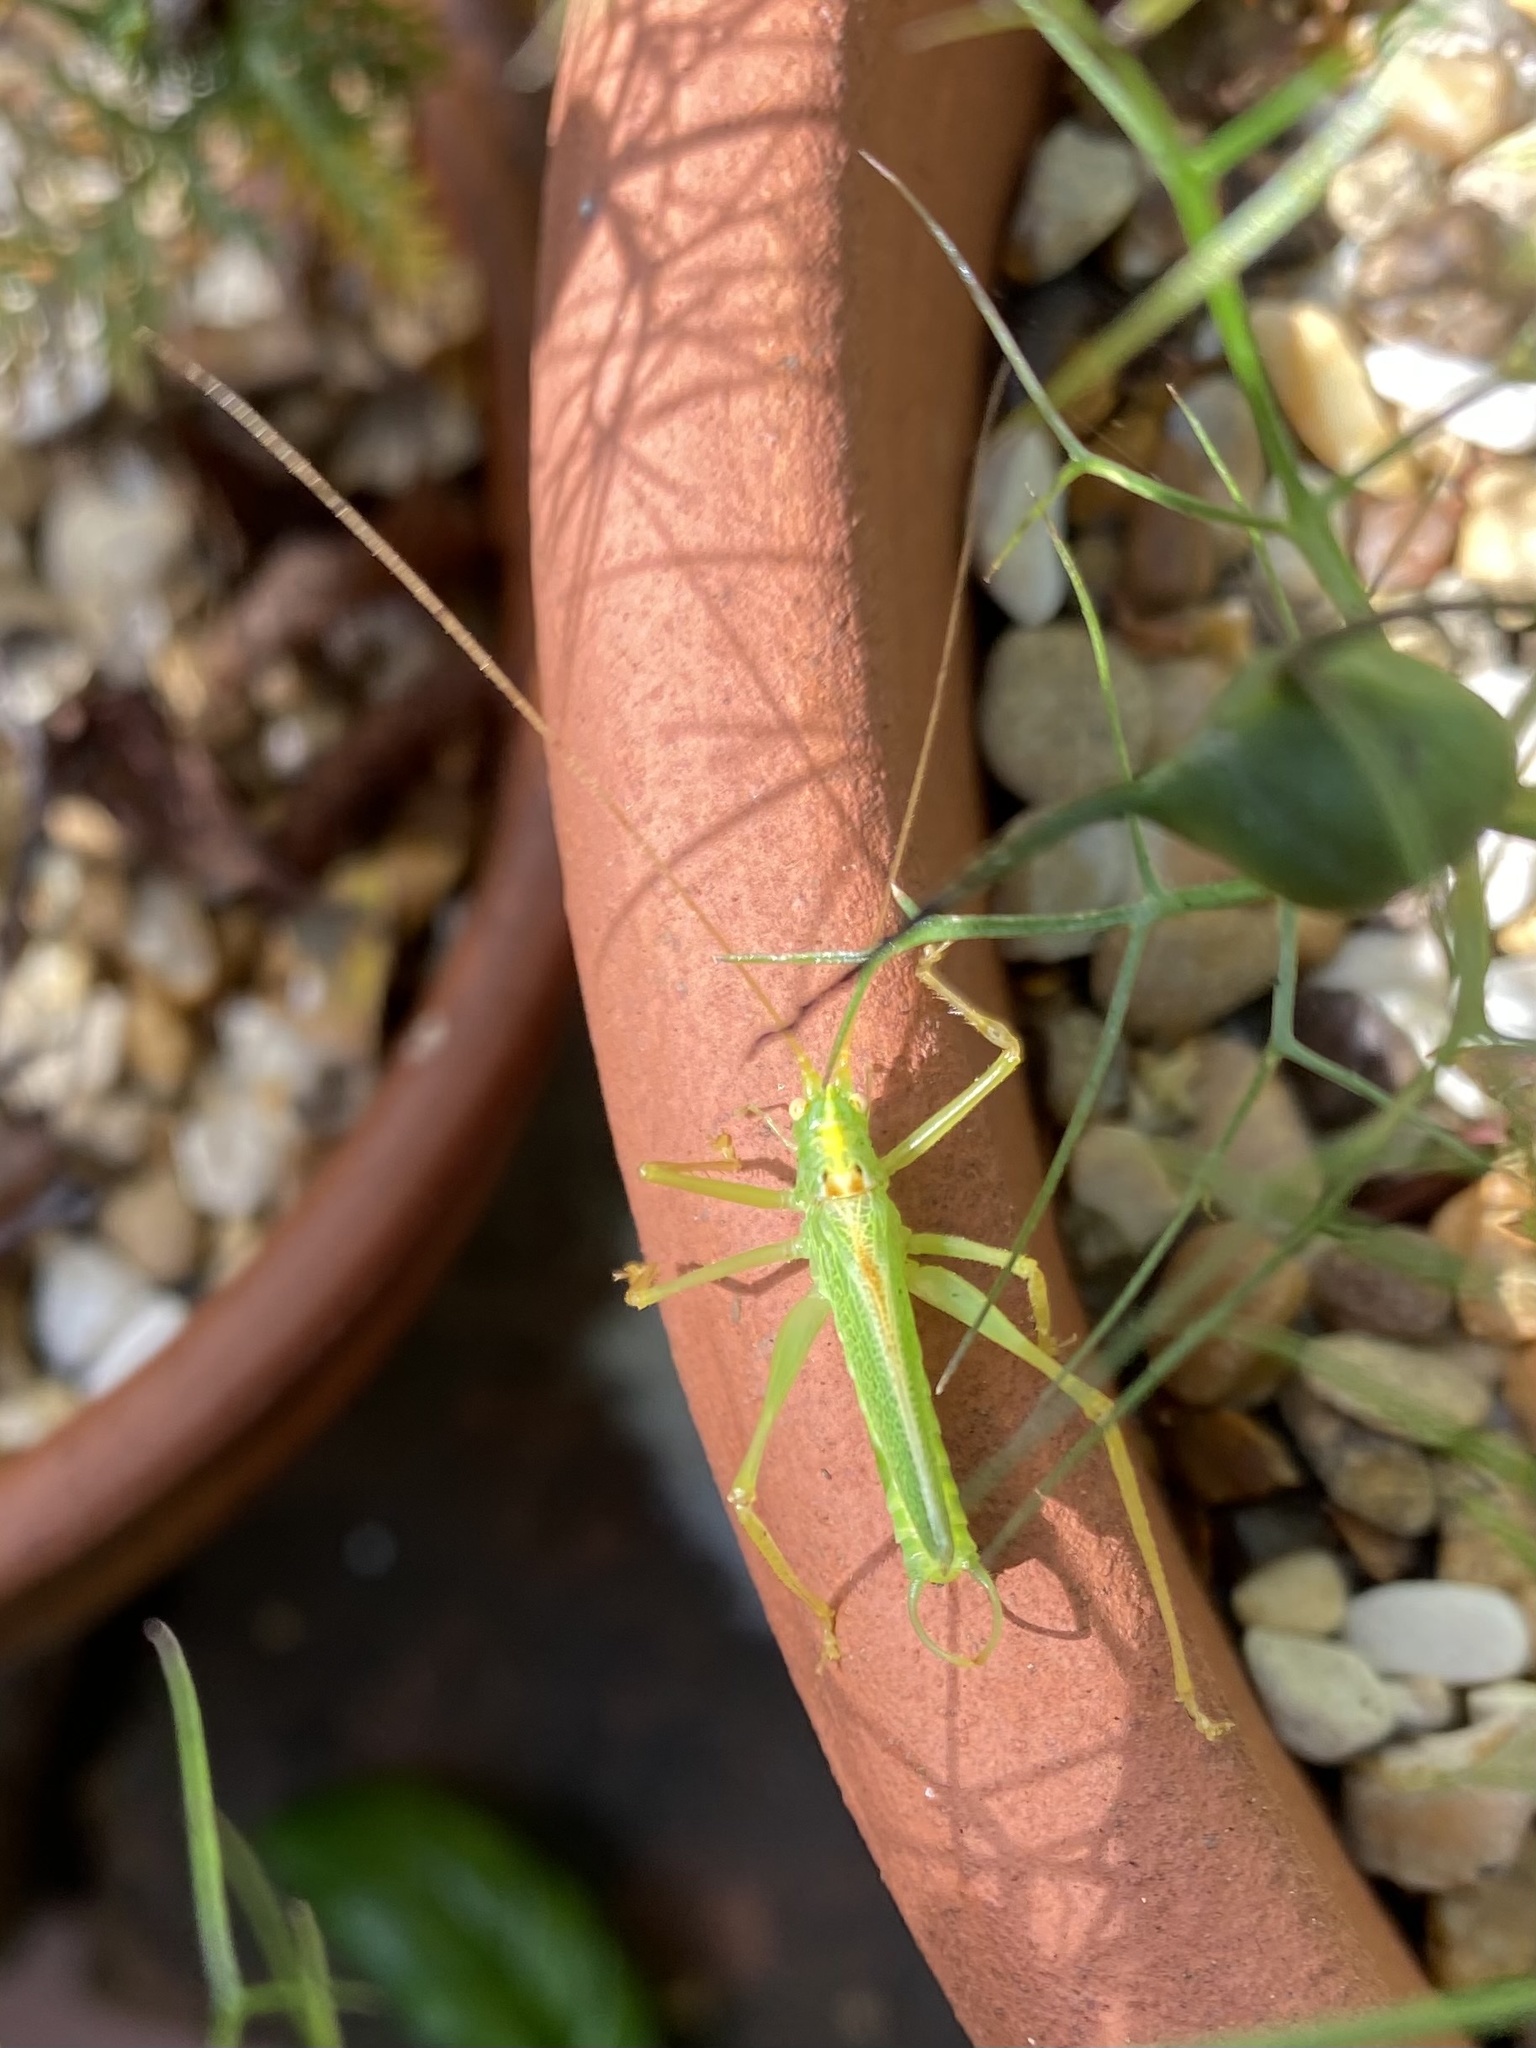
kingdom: Animalia
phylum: Arthropoda
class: Insecta
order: Orthoptera
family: Tettigoniidae
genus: Meconema
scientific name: Meconema thalassinum
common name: Oak bush-cricket
